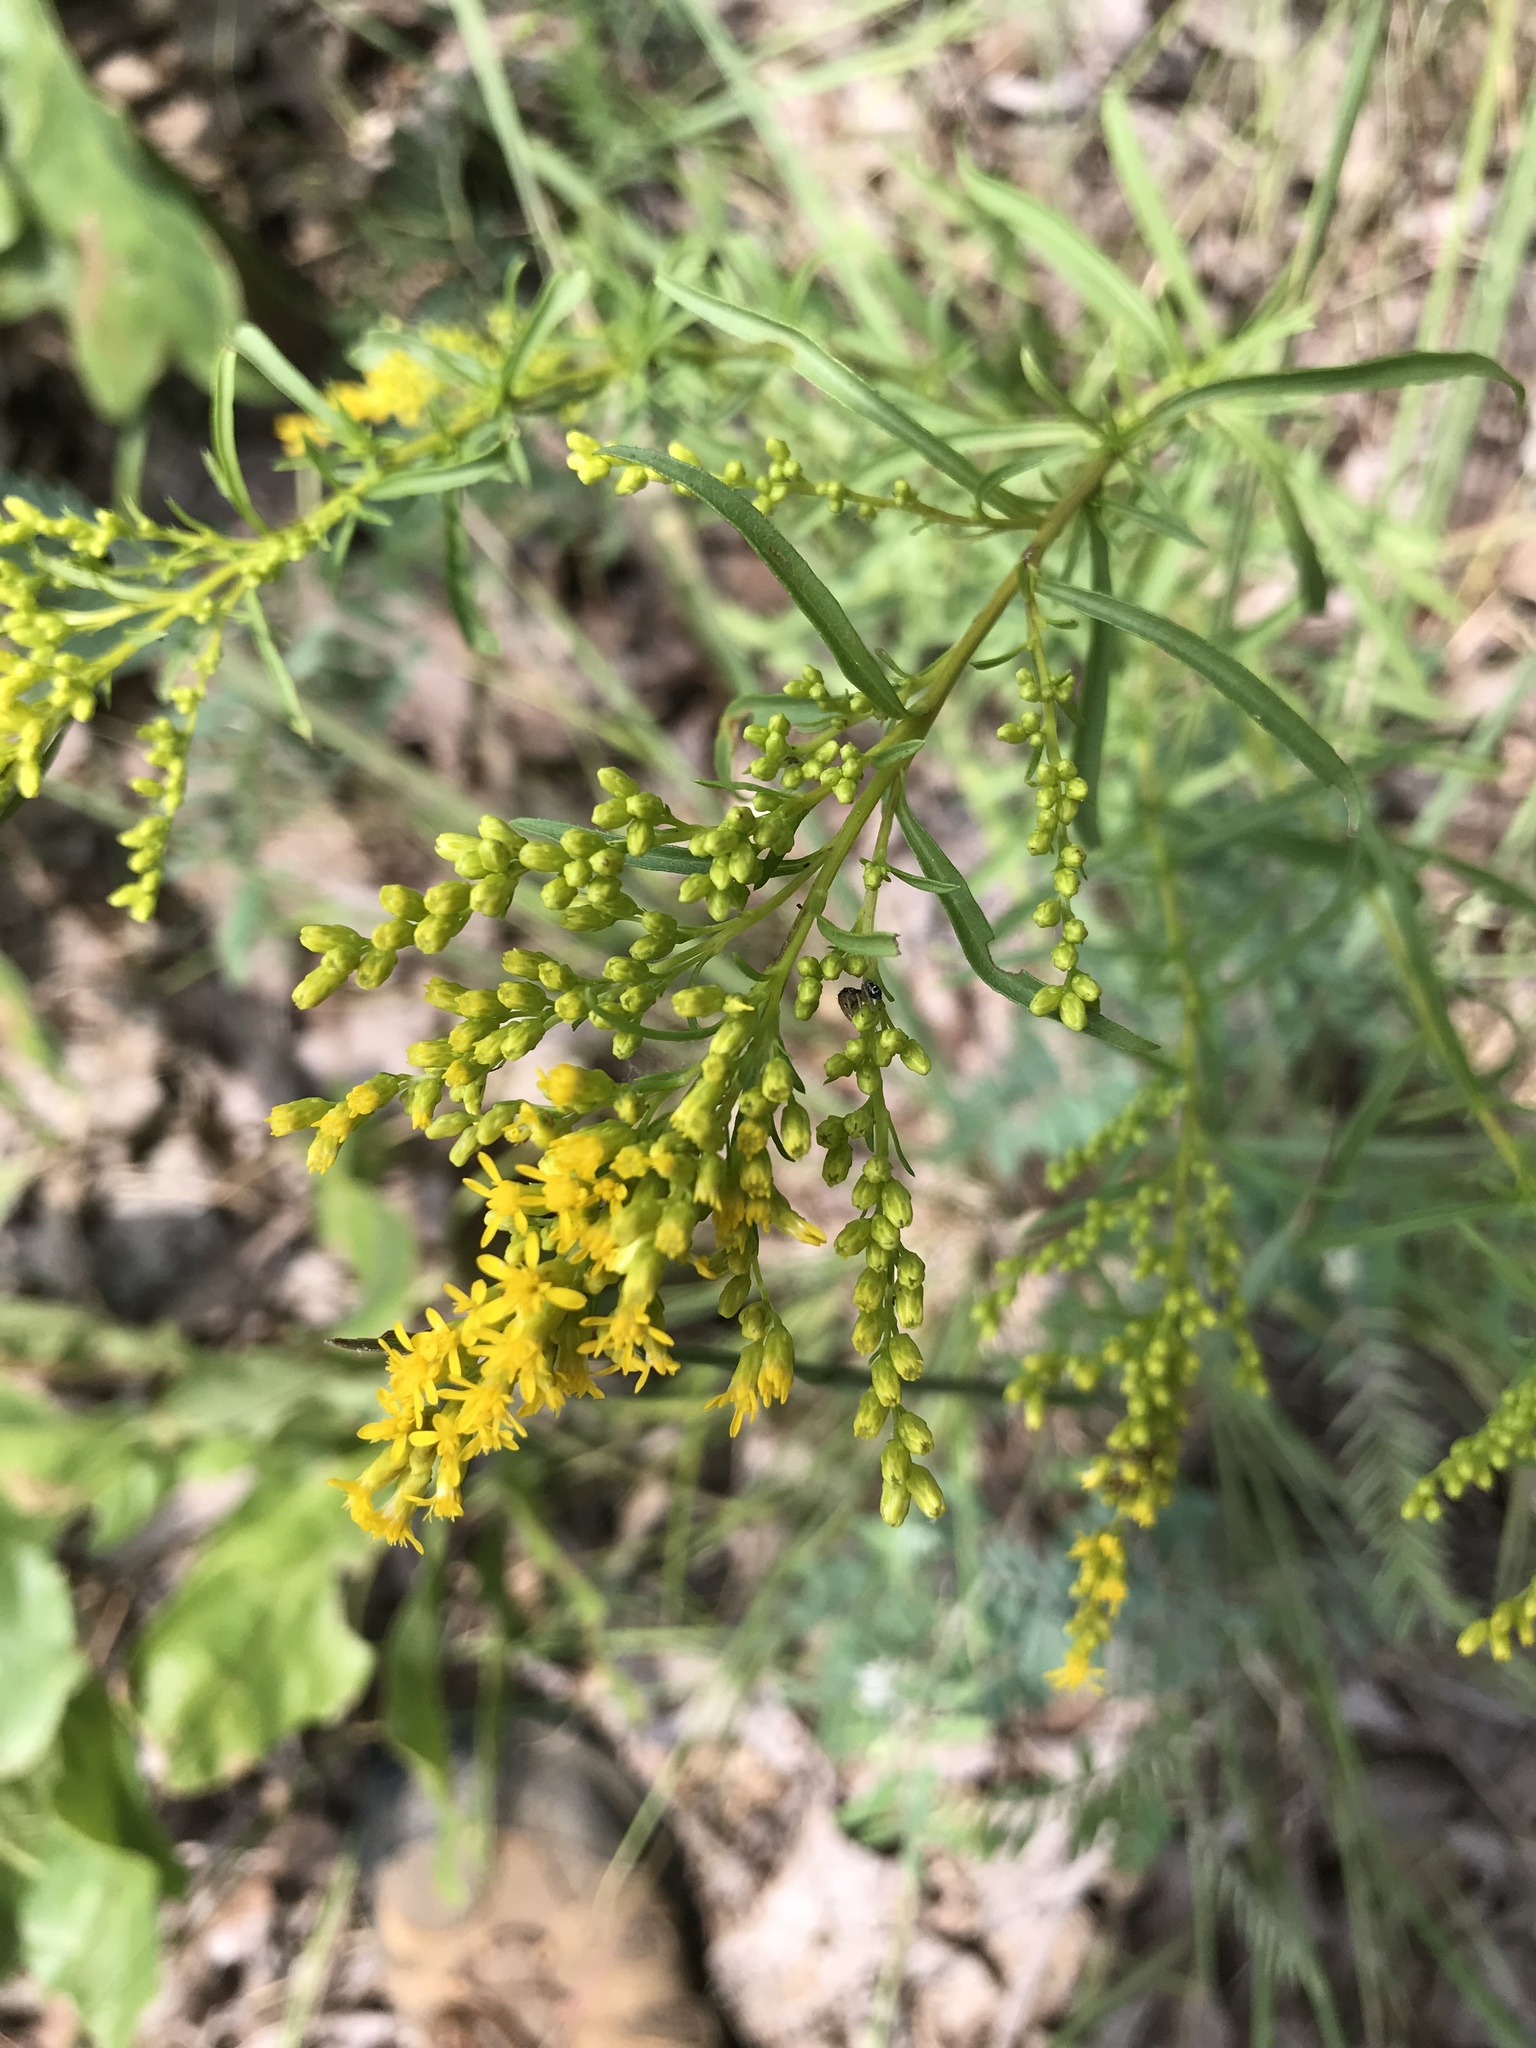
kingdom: Plantae
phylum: Tracheophyta
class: Magnoliopsida
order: Asterales
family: Asteraceae
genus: Solidago
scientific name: Solidago pinetorum
